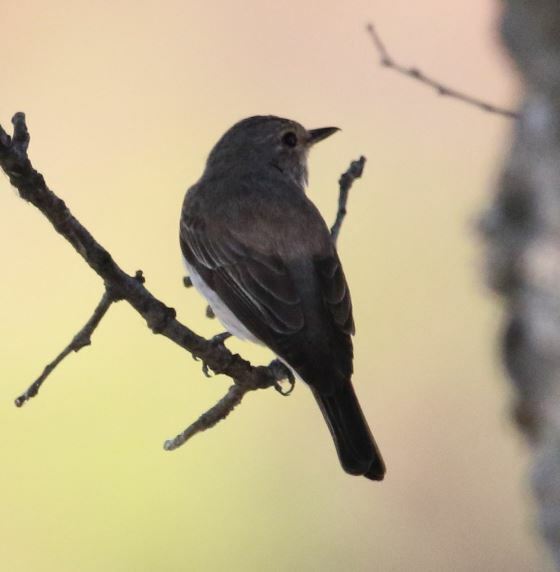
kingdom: Animalia
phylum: Chordata
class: Aves
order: Passeriformes
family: Muscicapidae
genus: Muscicapa
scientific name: Muscicapa striata
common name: Spotted flycatcher
